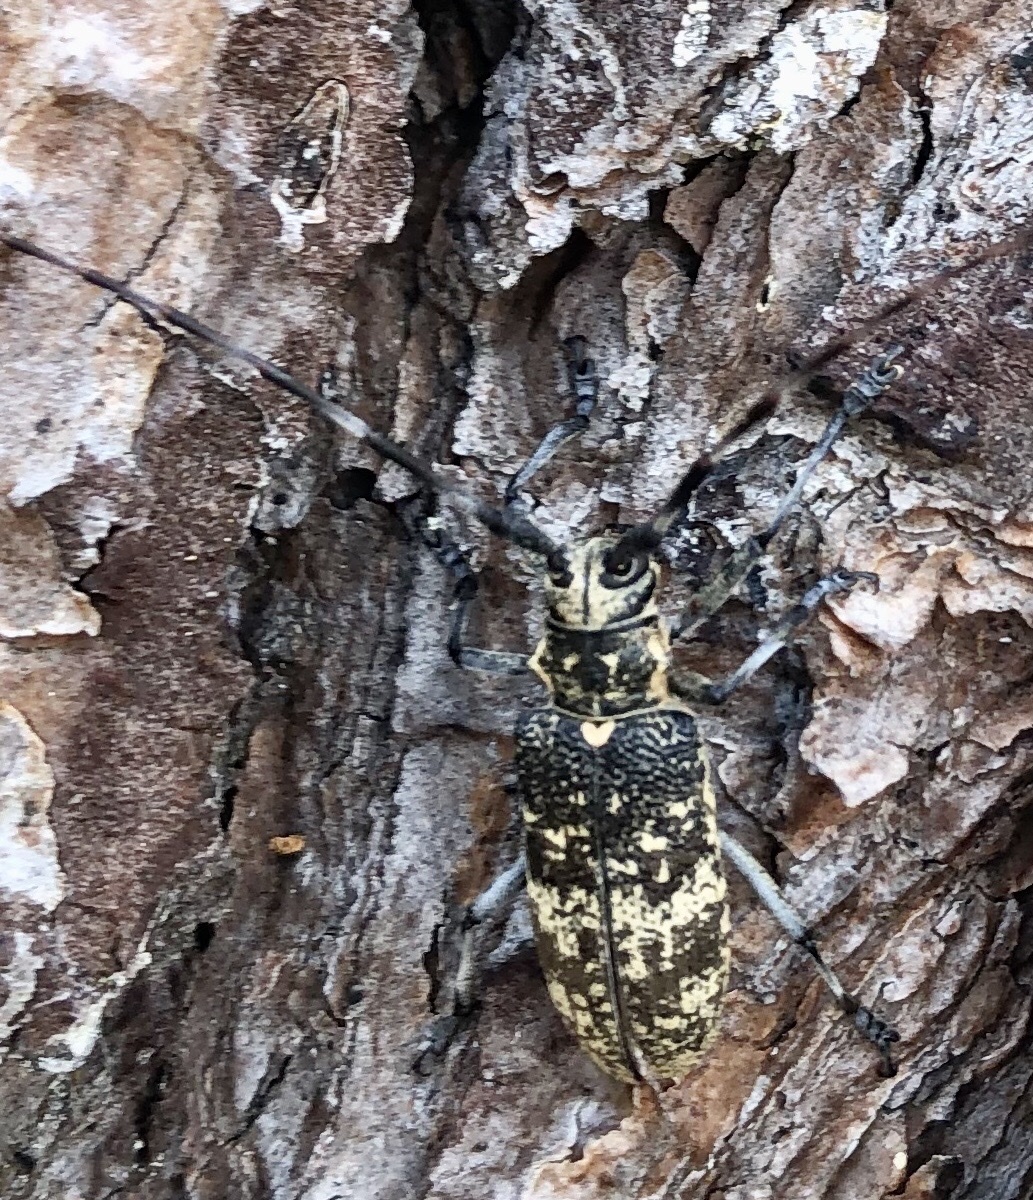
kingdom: Animalia
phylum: Arthropoda
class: Insecta
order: Coleoptera
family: Cerambycidae
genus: Monochamus
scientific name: Monochamus galloprovincialis
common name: Pine sawyer
